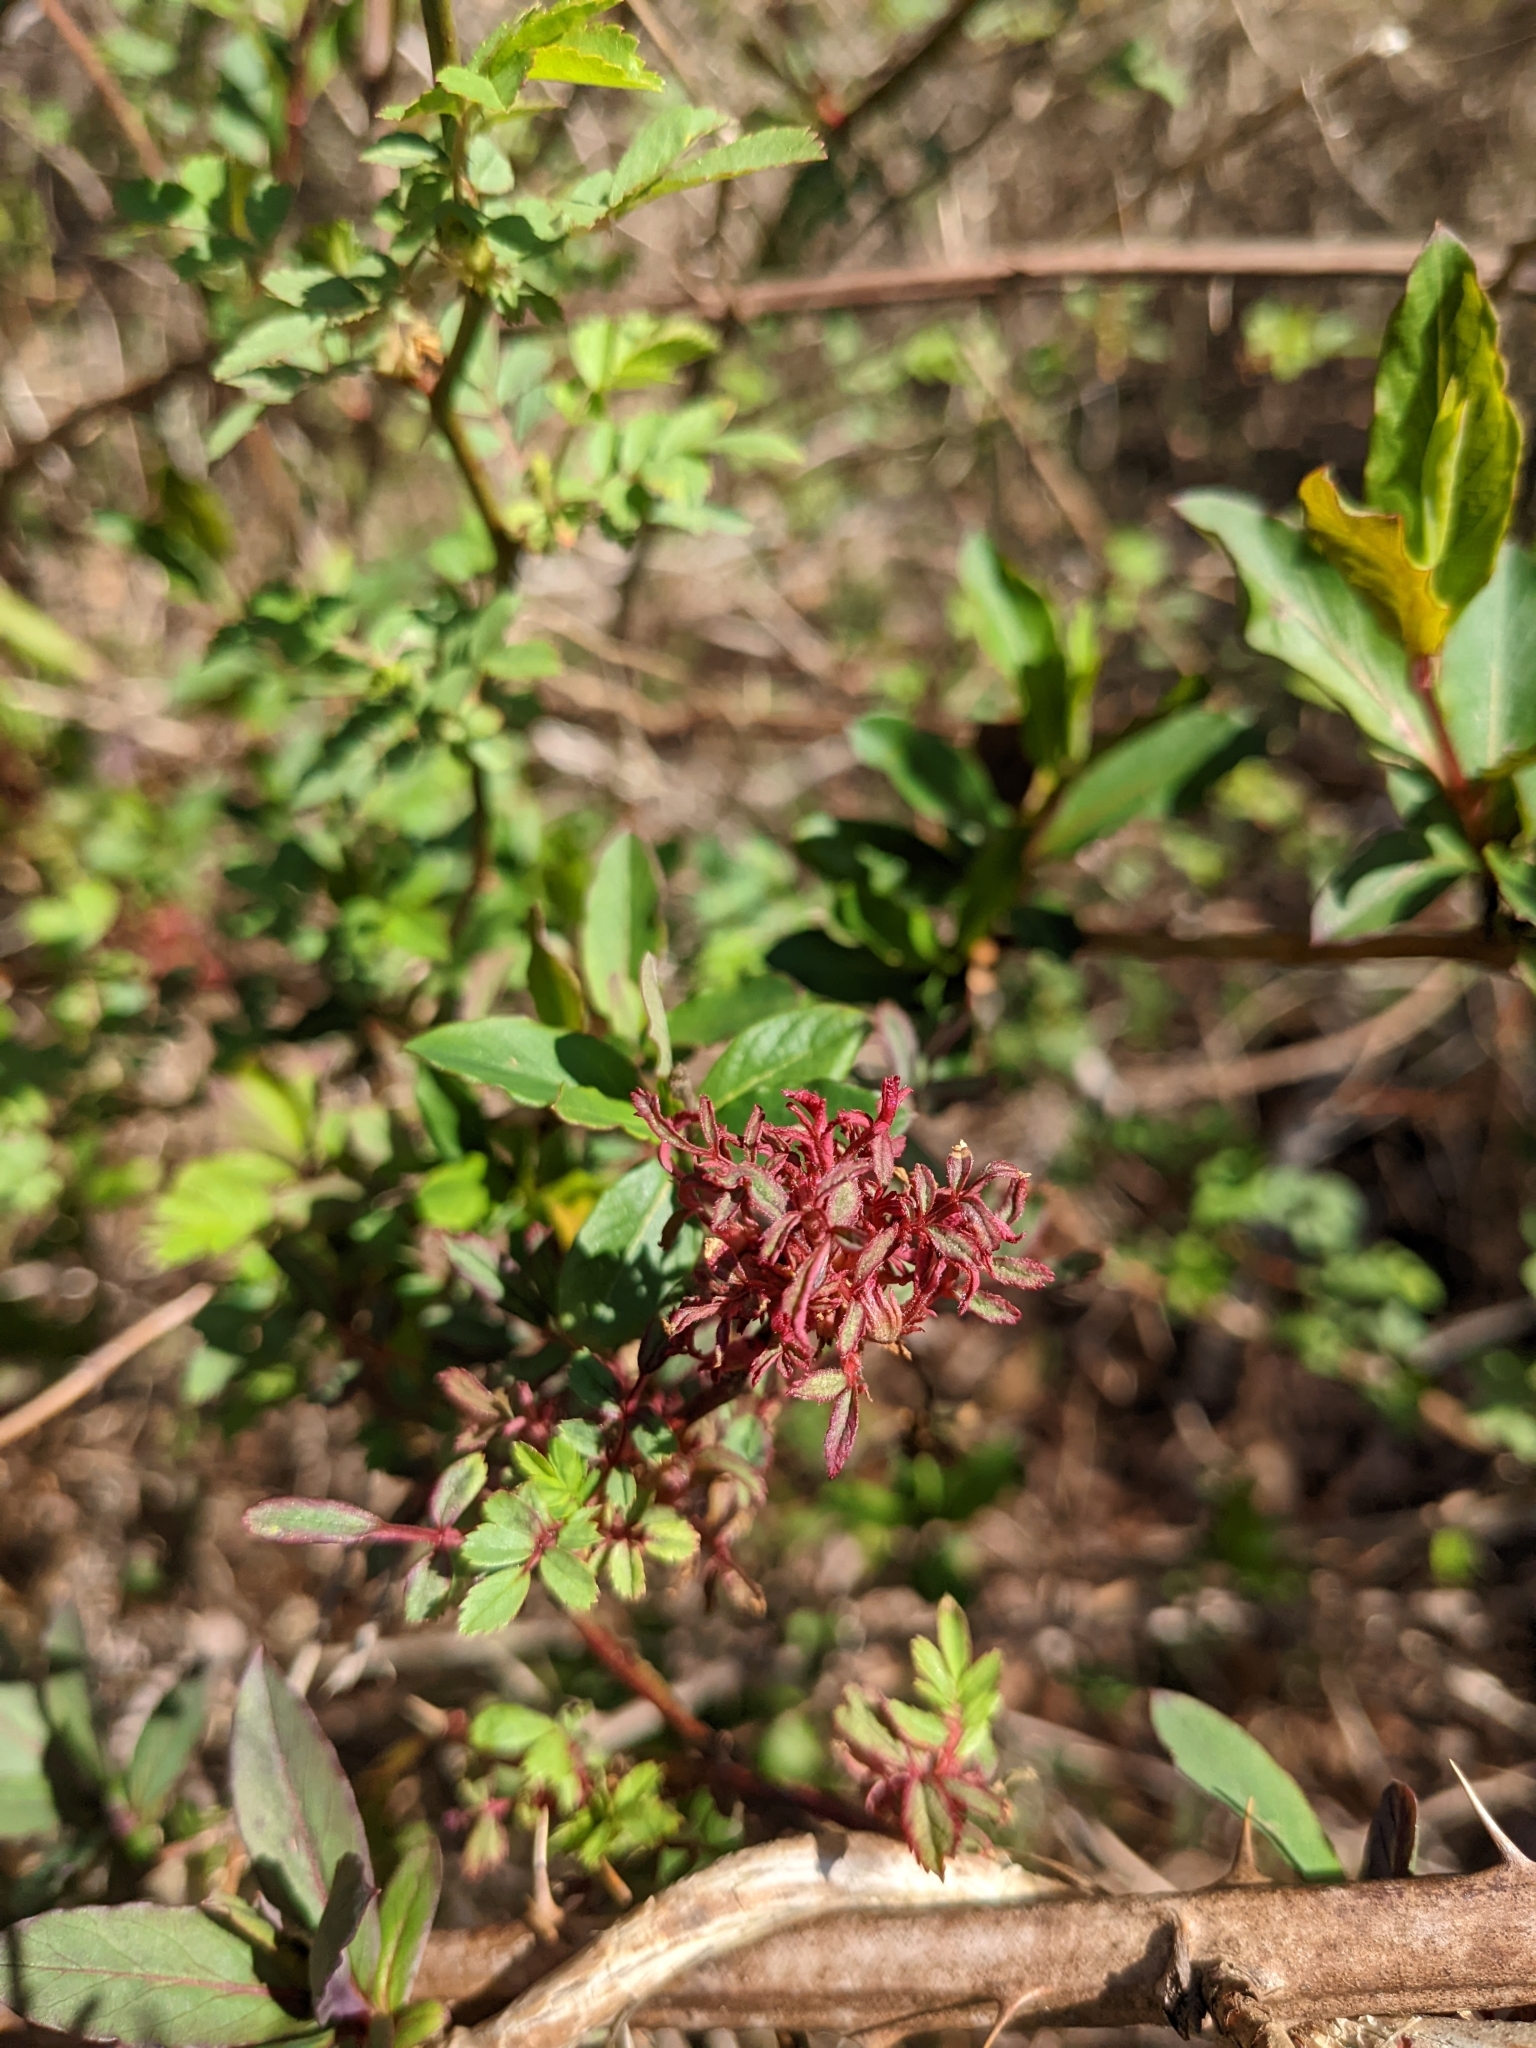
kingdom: Viruses
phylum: Negarnaviricota
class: Ellioviricetes
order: Bunyavirales
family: Fimoviridae
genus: Emaravirus
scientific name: Emaravirus rosae
